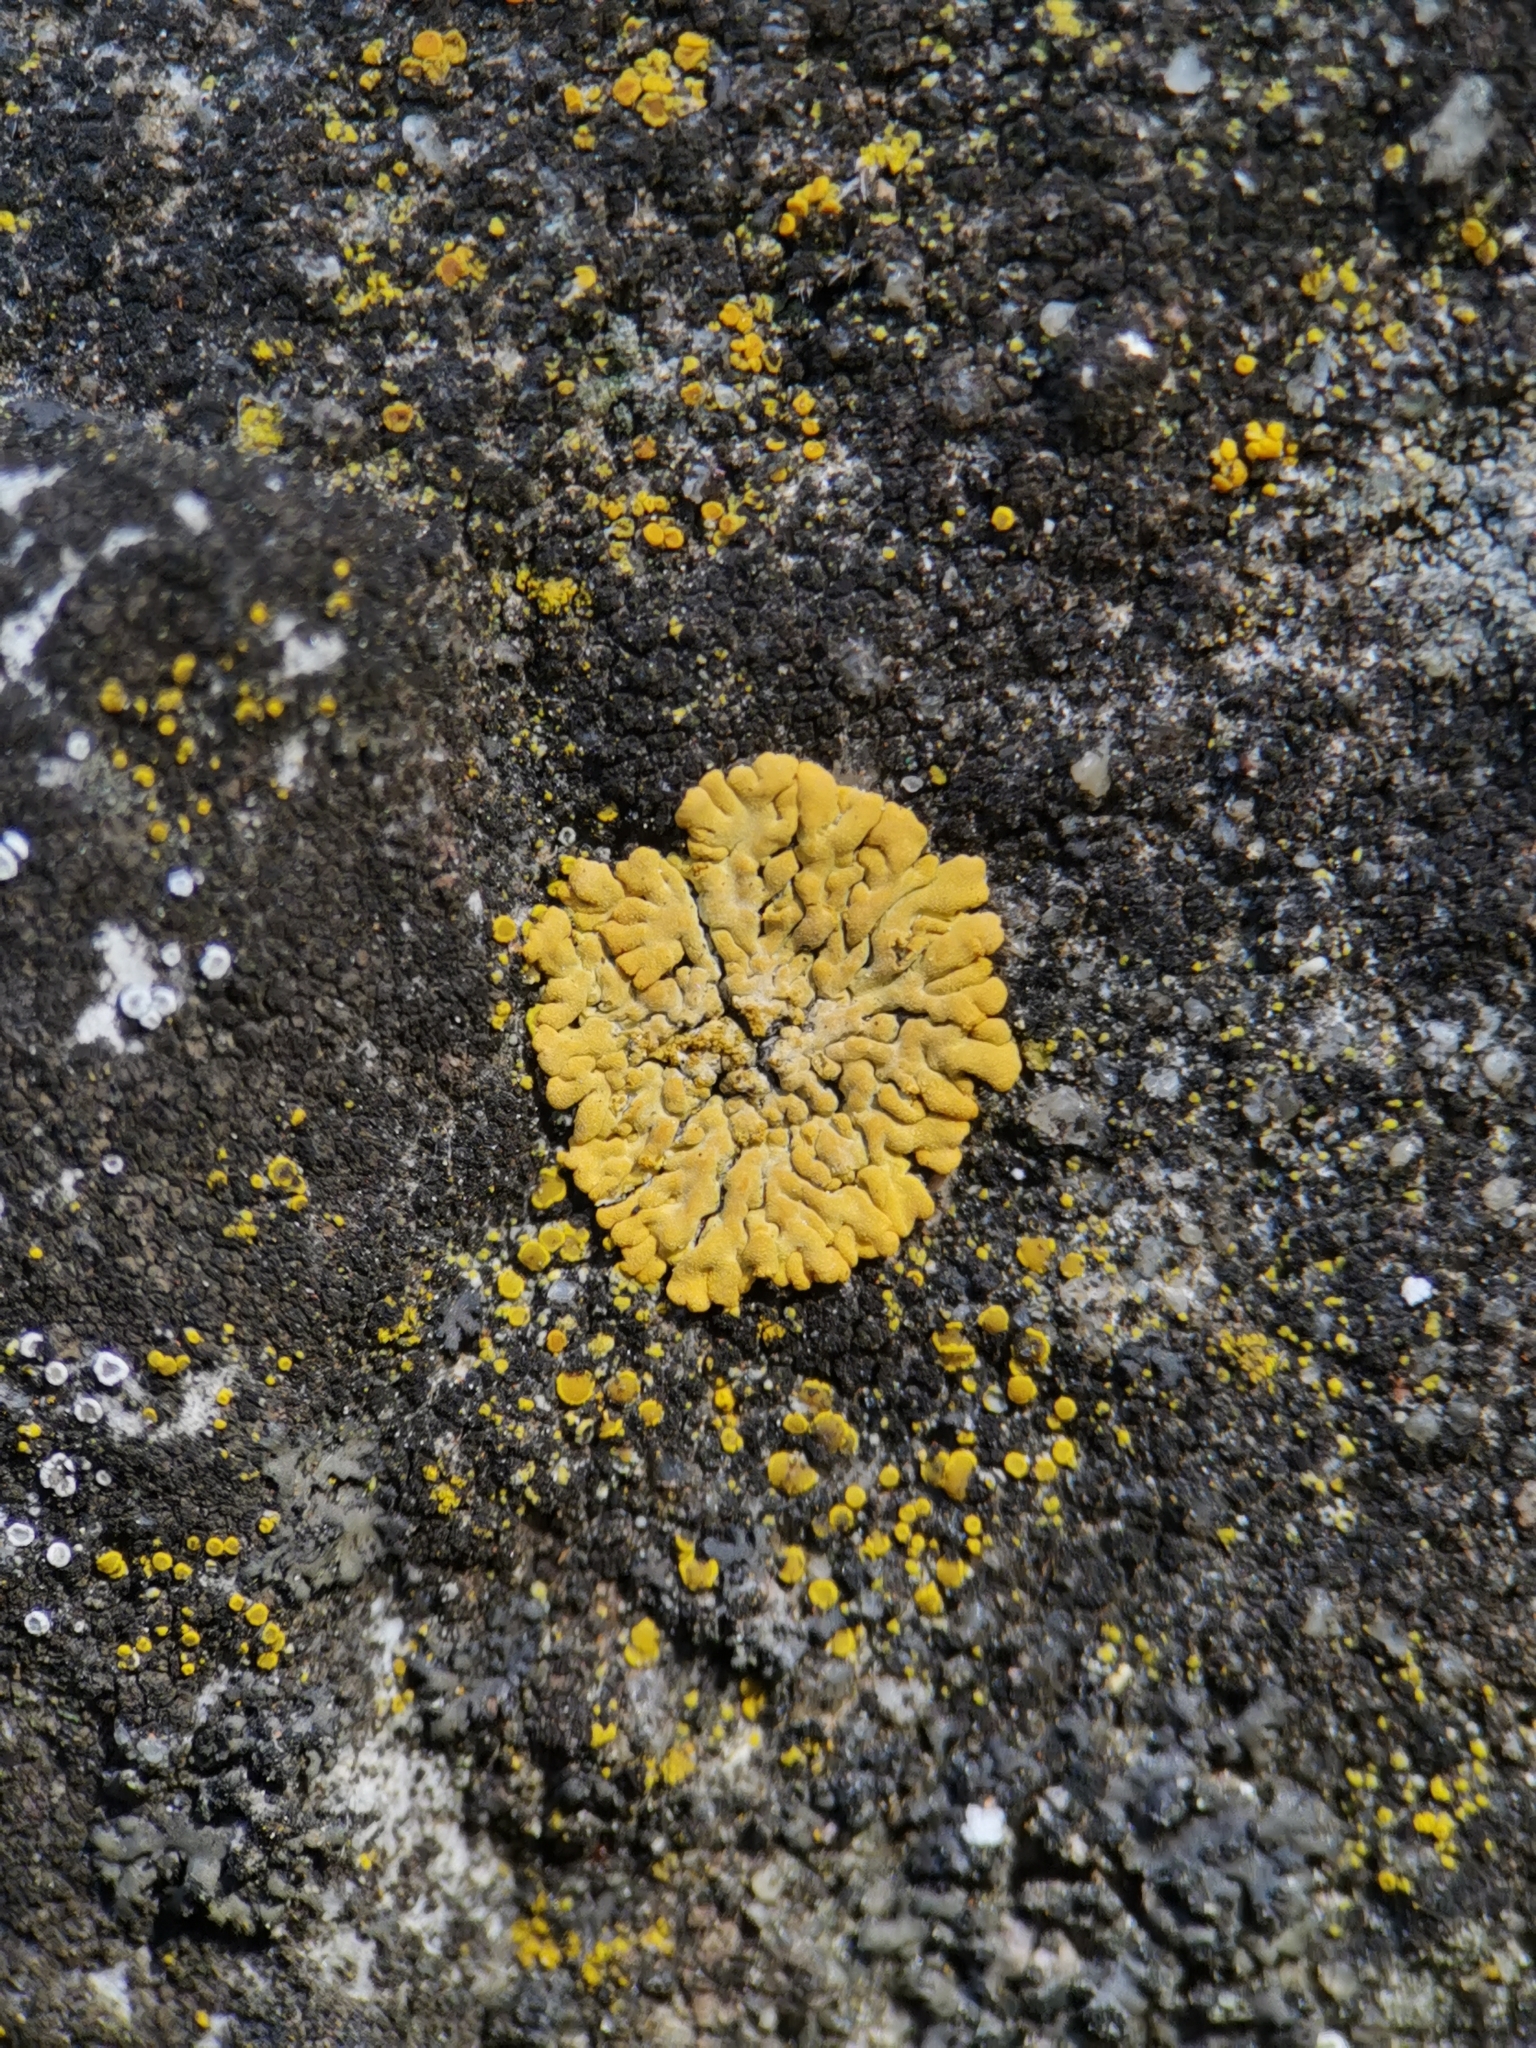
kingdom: Fungi
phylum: Ascomycota
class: Lecanoromycetes
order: Teloschistales
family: Teloschistaceae
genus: Calogaya
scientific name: Calogaya decipiens
